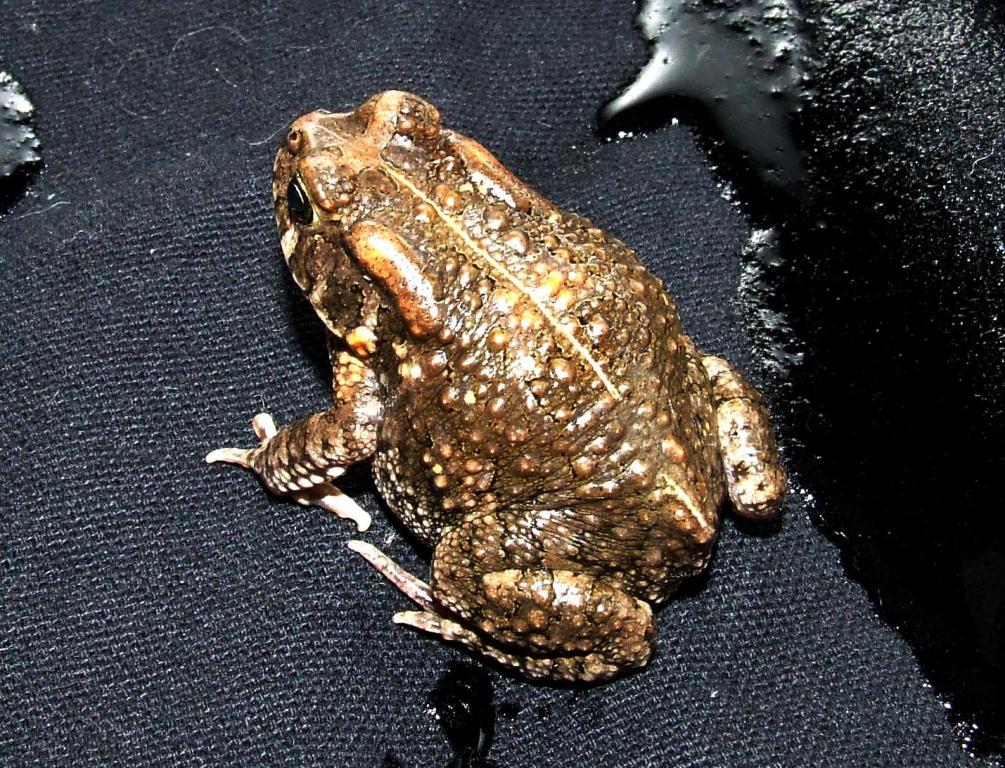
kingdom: Animalia
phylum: Chordata
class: Amphibia
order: Anura
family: Bufonidae
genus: Sclerophrys
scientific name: Sclerophrys gutturalis
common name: African common toad
